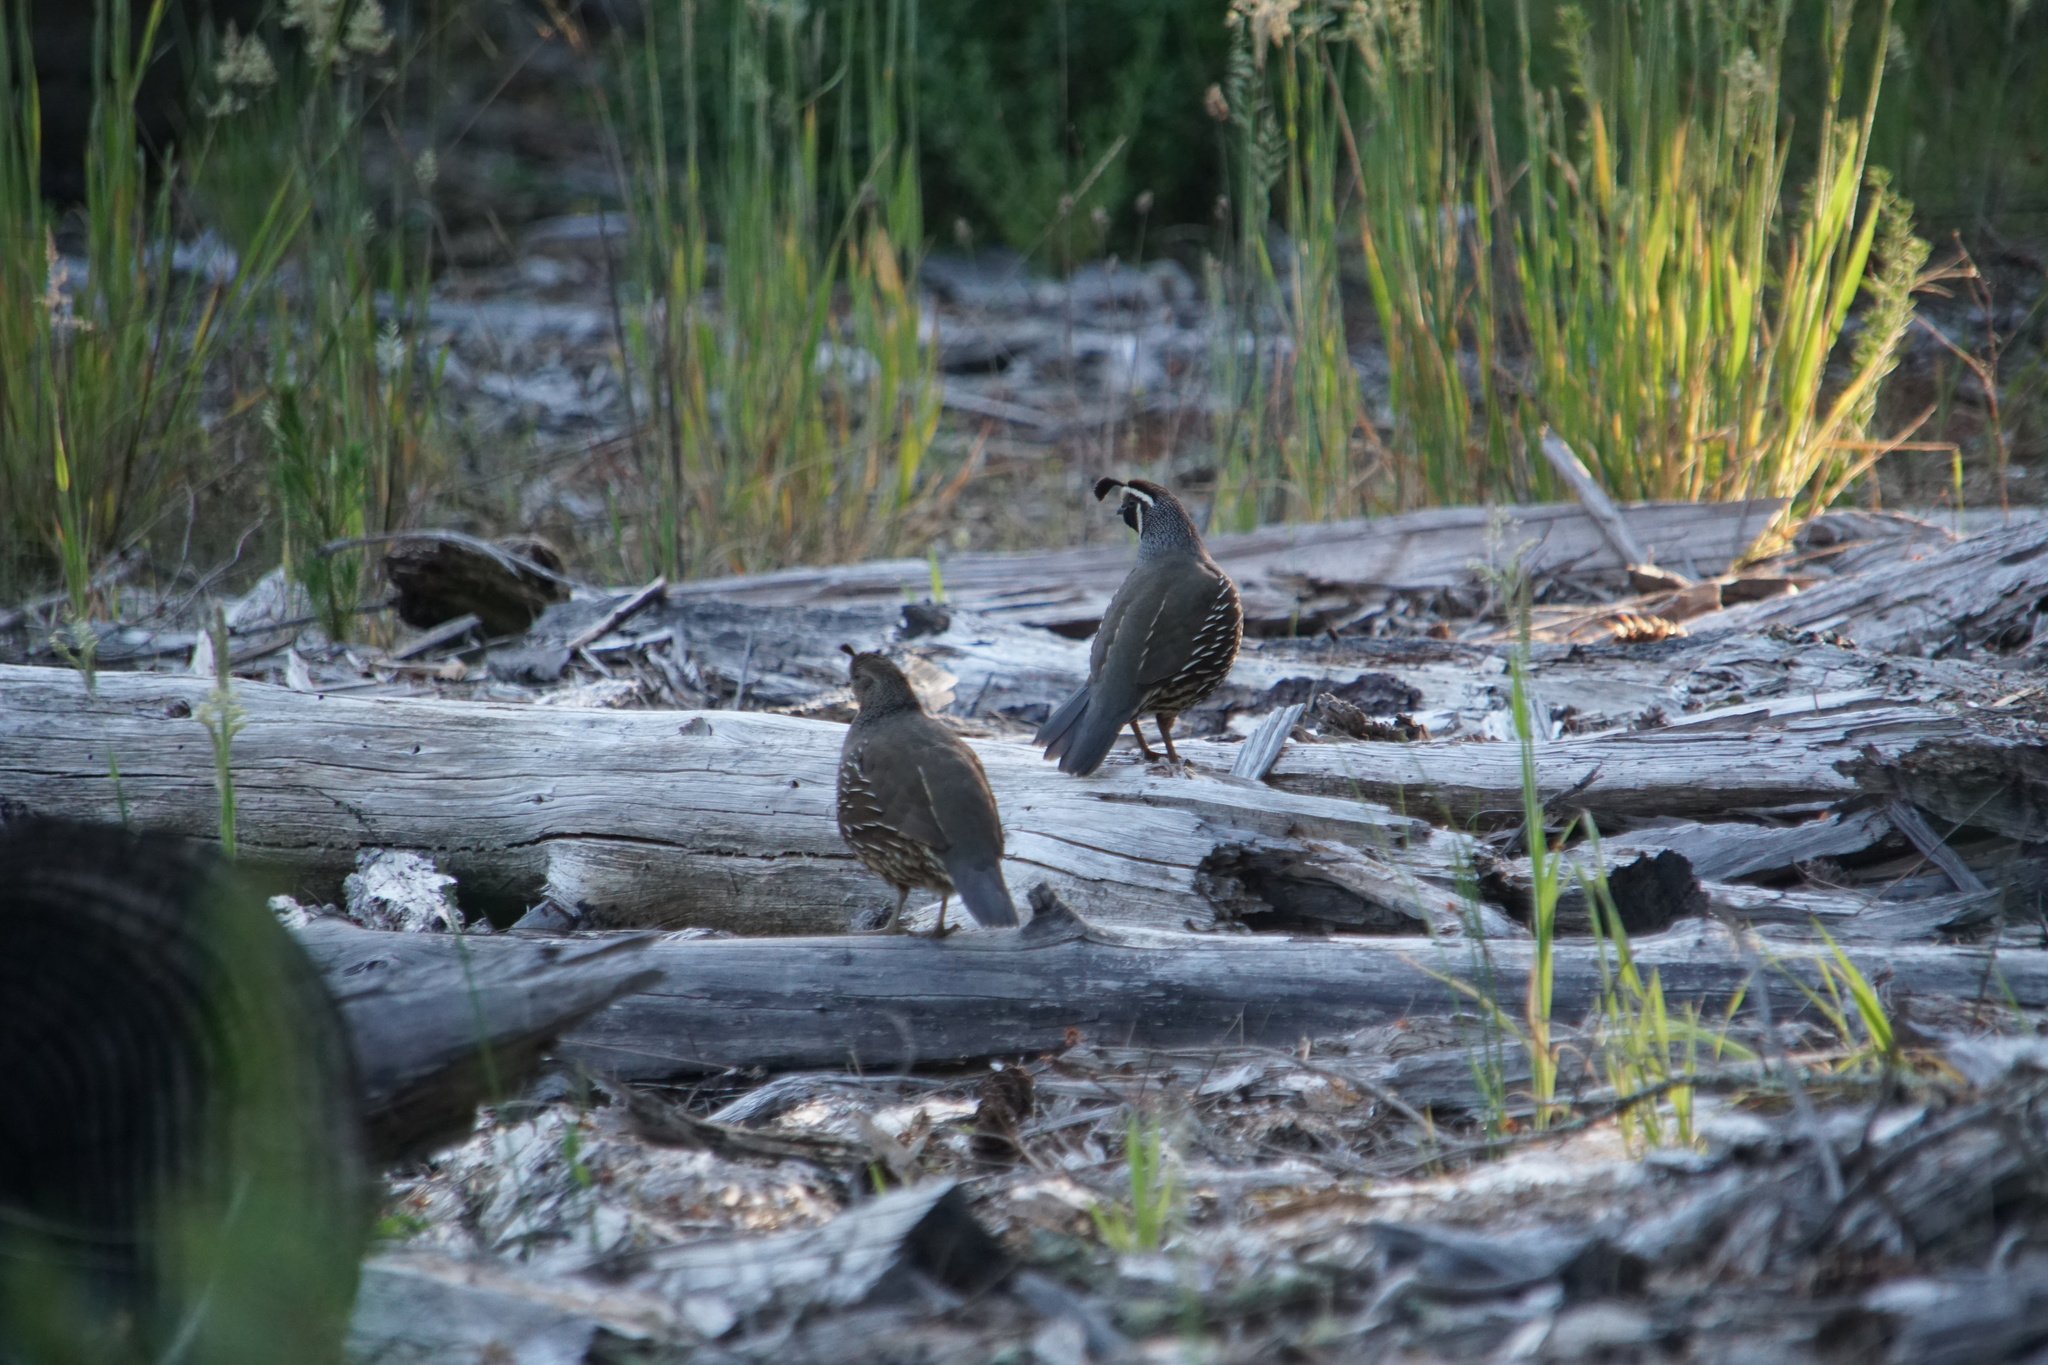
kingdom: Animalia
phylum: Chordata
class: Aves
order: Galliformes
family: Odontophoridae
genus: Callipepla
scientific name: Callipepla californica
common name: California quail
